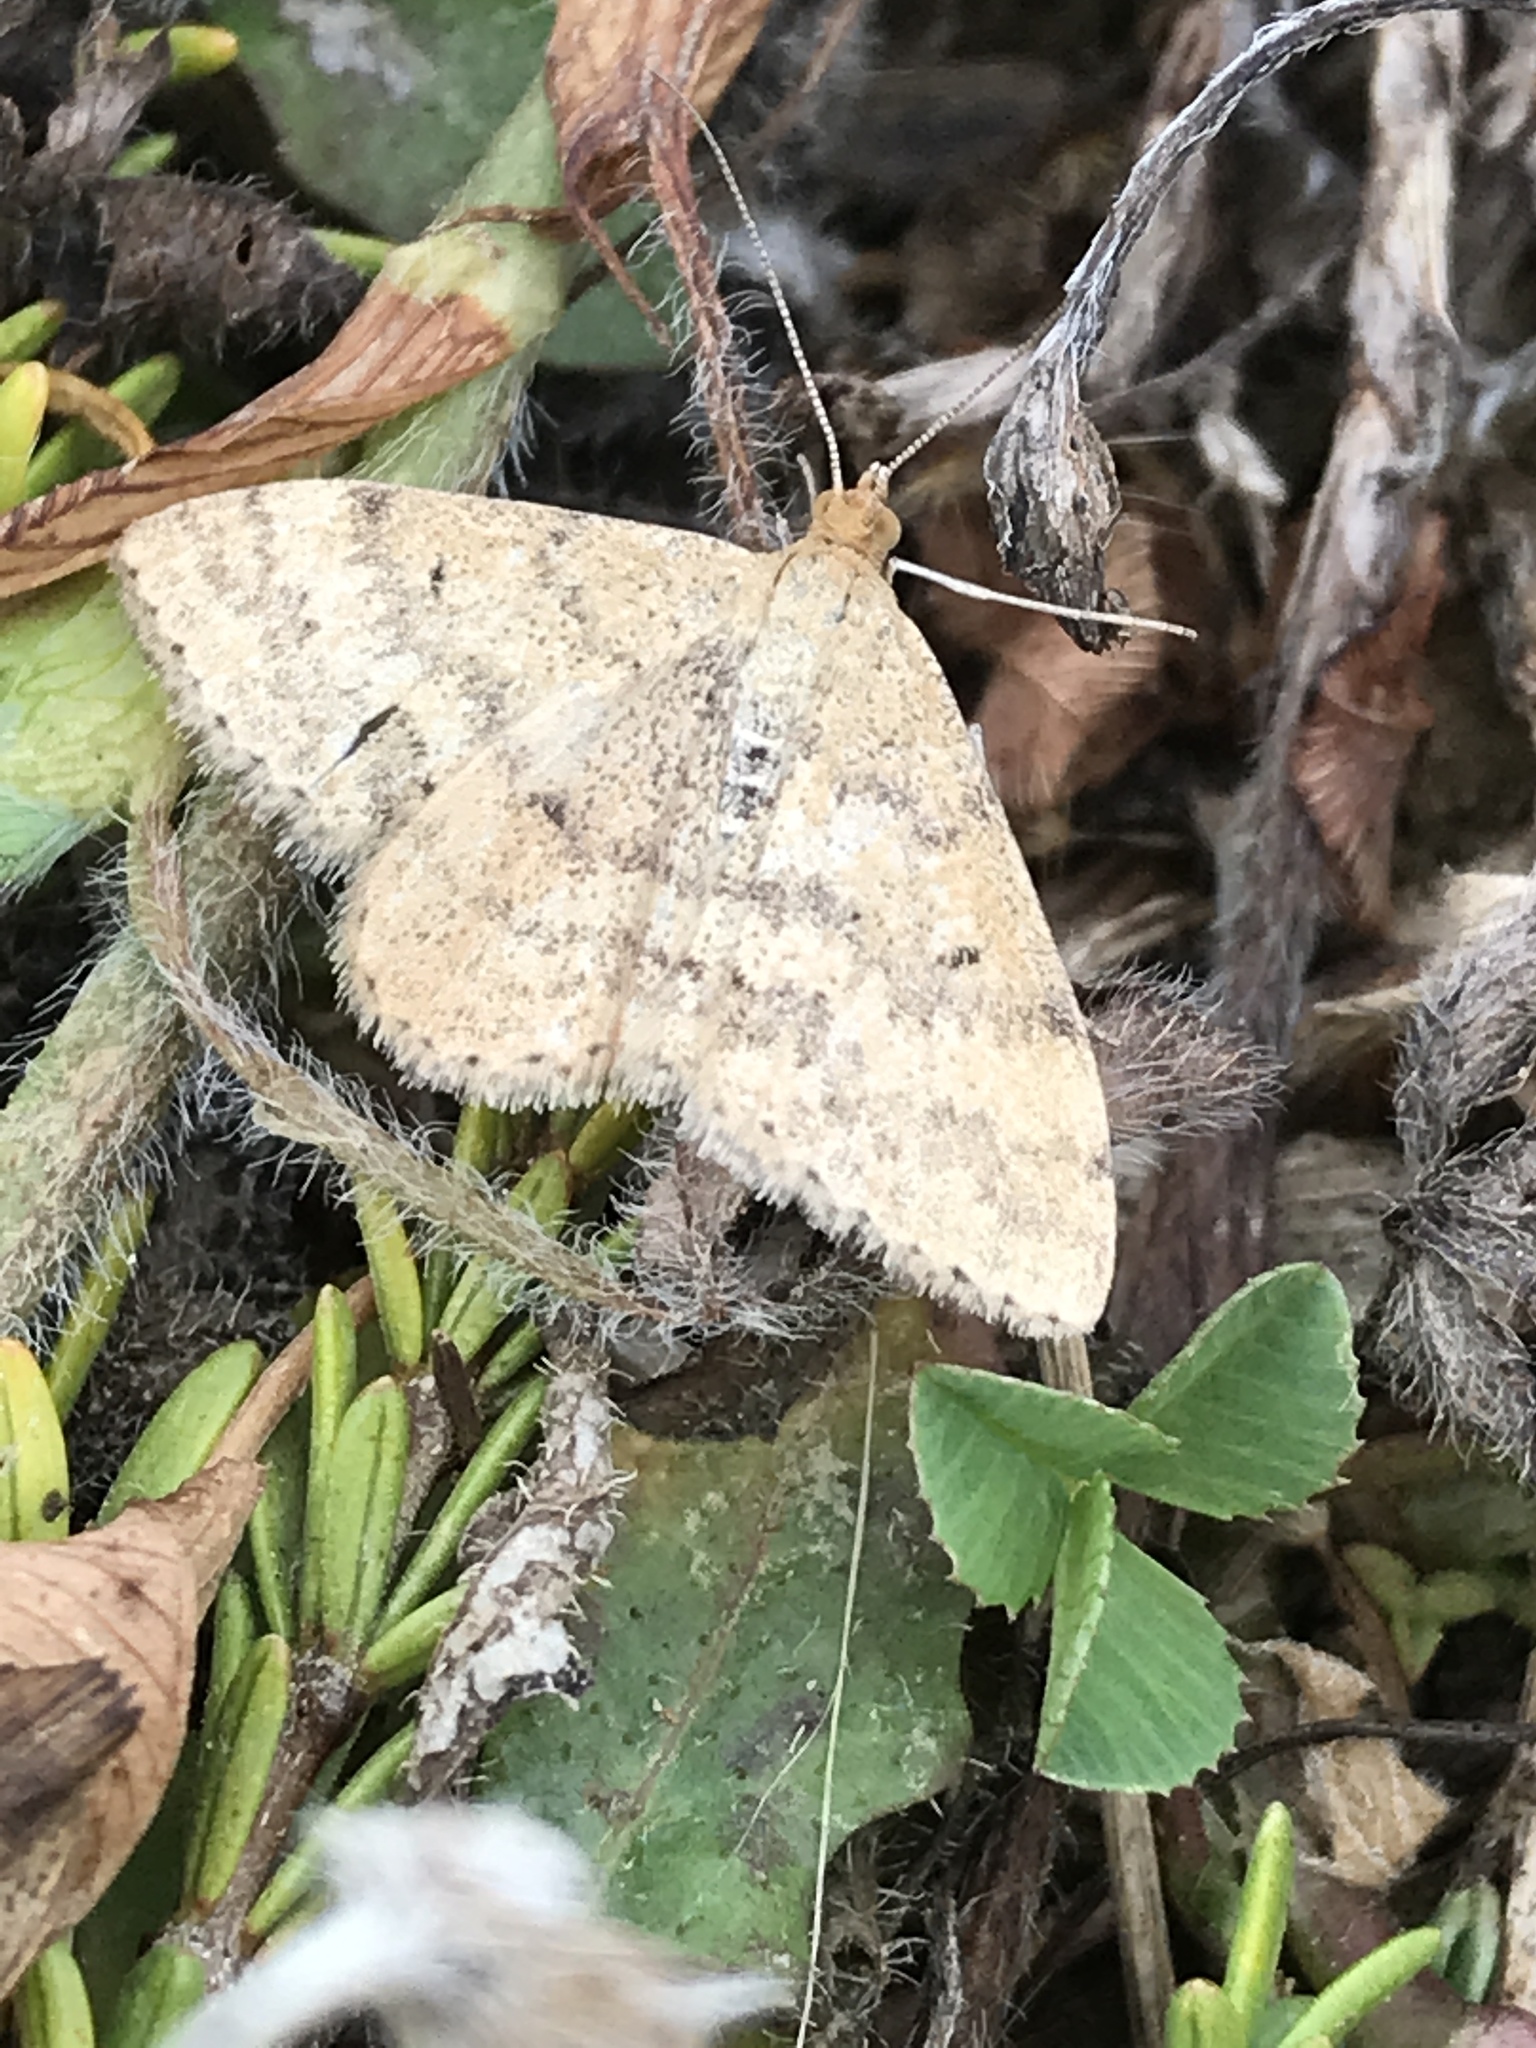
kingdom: Animalia
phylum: Arthropoda
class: Insecta
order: Lepidoptera
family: Geometridae
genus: Scopula
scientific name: Scopula rubraria
